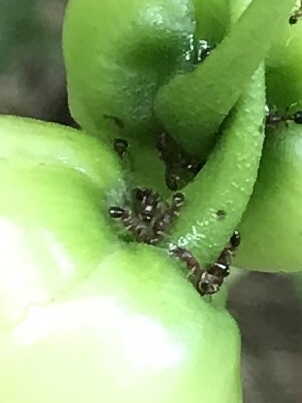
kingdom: Animalia
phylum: Arthropoda
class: Insecta
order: Hymenoptera
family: Formicidae
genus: Tetramorium
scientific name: Tetramorium bicarinatum
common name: Guinea ant
